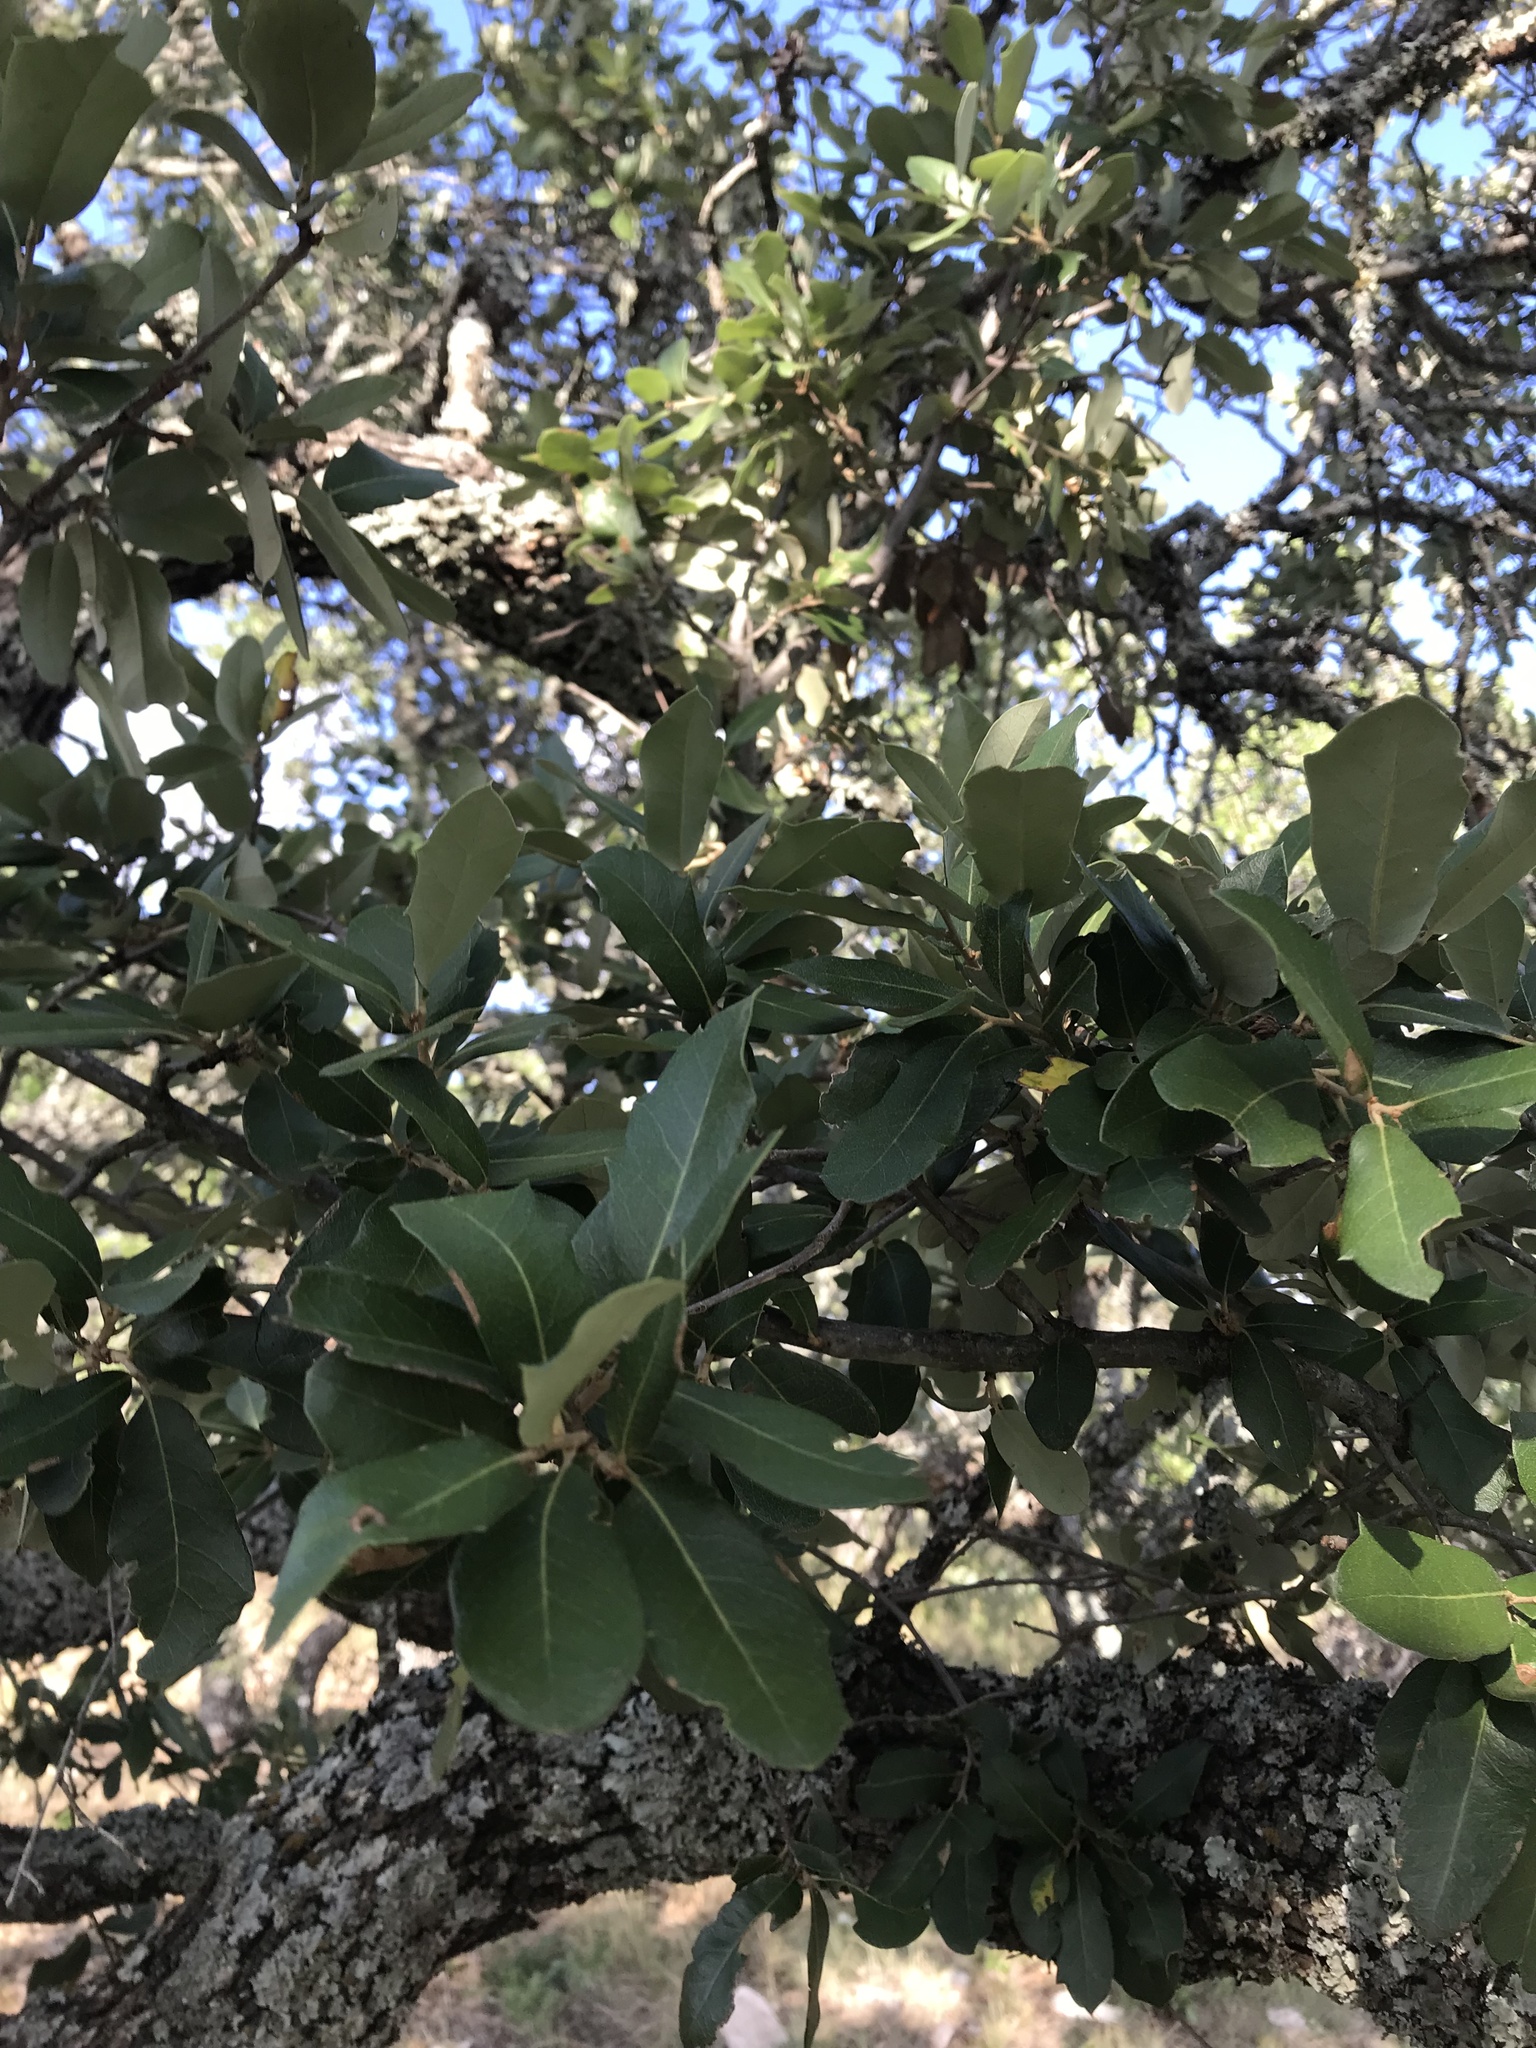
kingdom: Plantae
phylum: Tracheophyta
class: Magnoliopsida
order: Fagales
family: Fagaceae
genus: Quercus
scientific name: Quercus fusiformis
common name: Texas live oak
